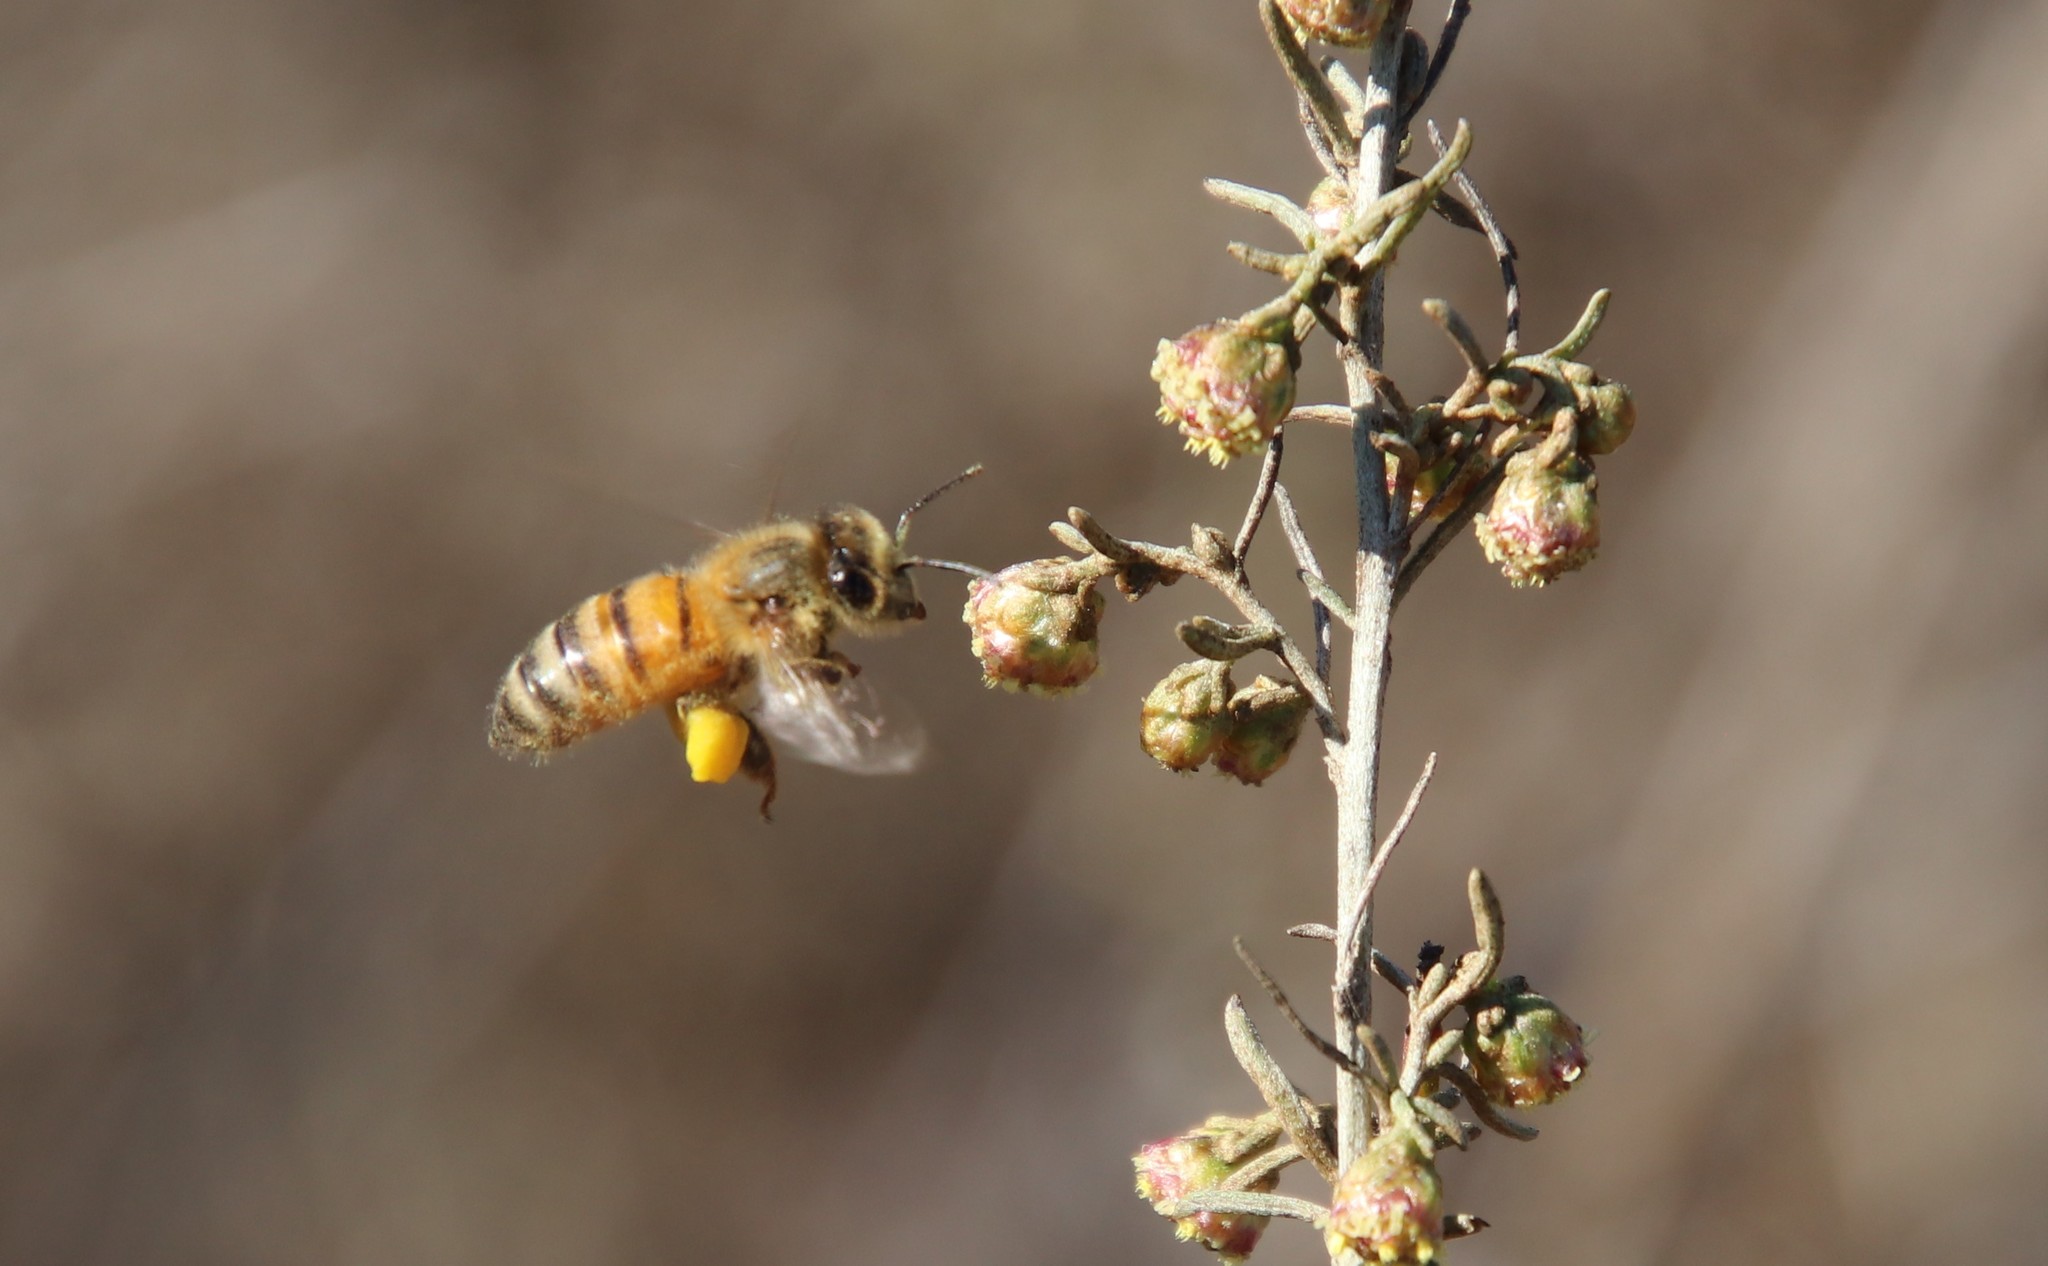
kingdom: Animalia
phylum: Arthropoda
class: Insecta
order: Hymenoptera
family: Apidae
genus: Apis
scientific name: Apis mellifera
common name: Honey bee
